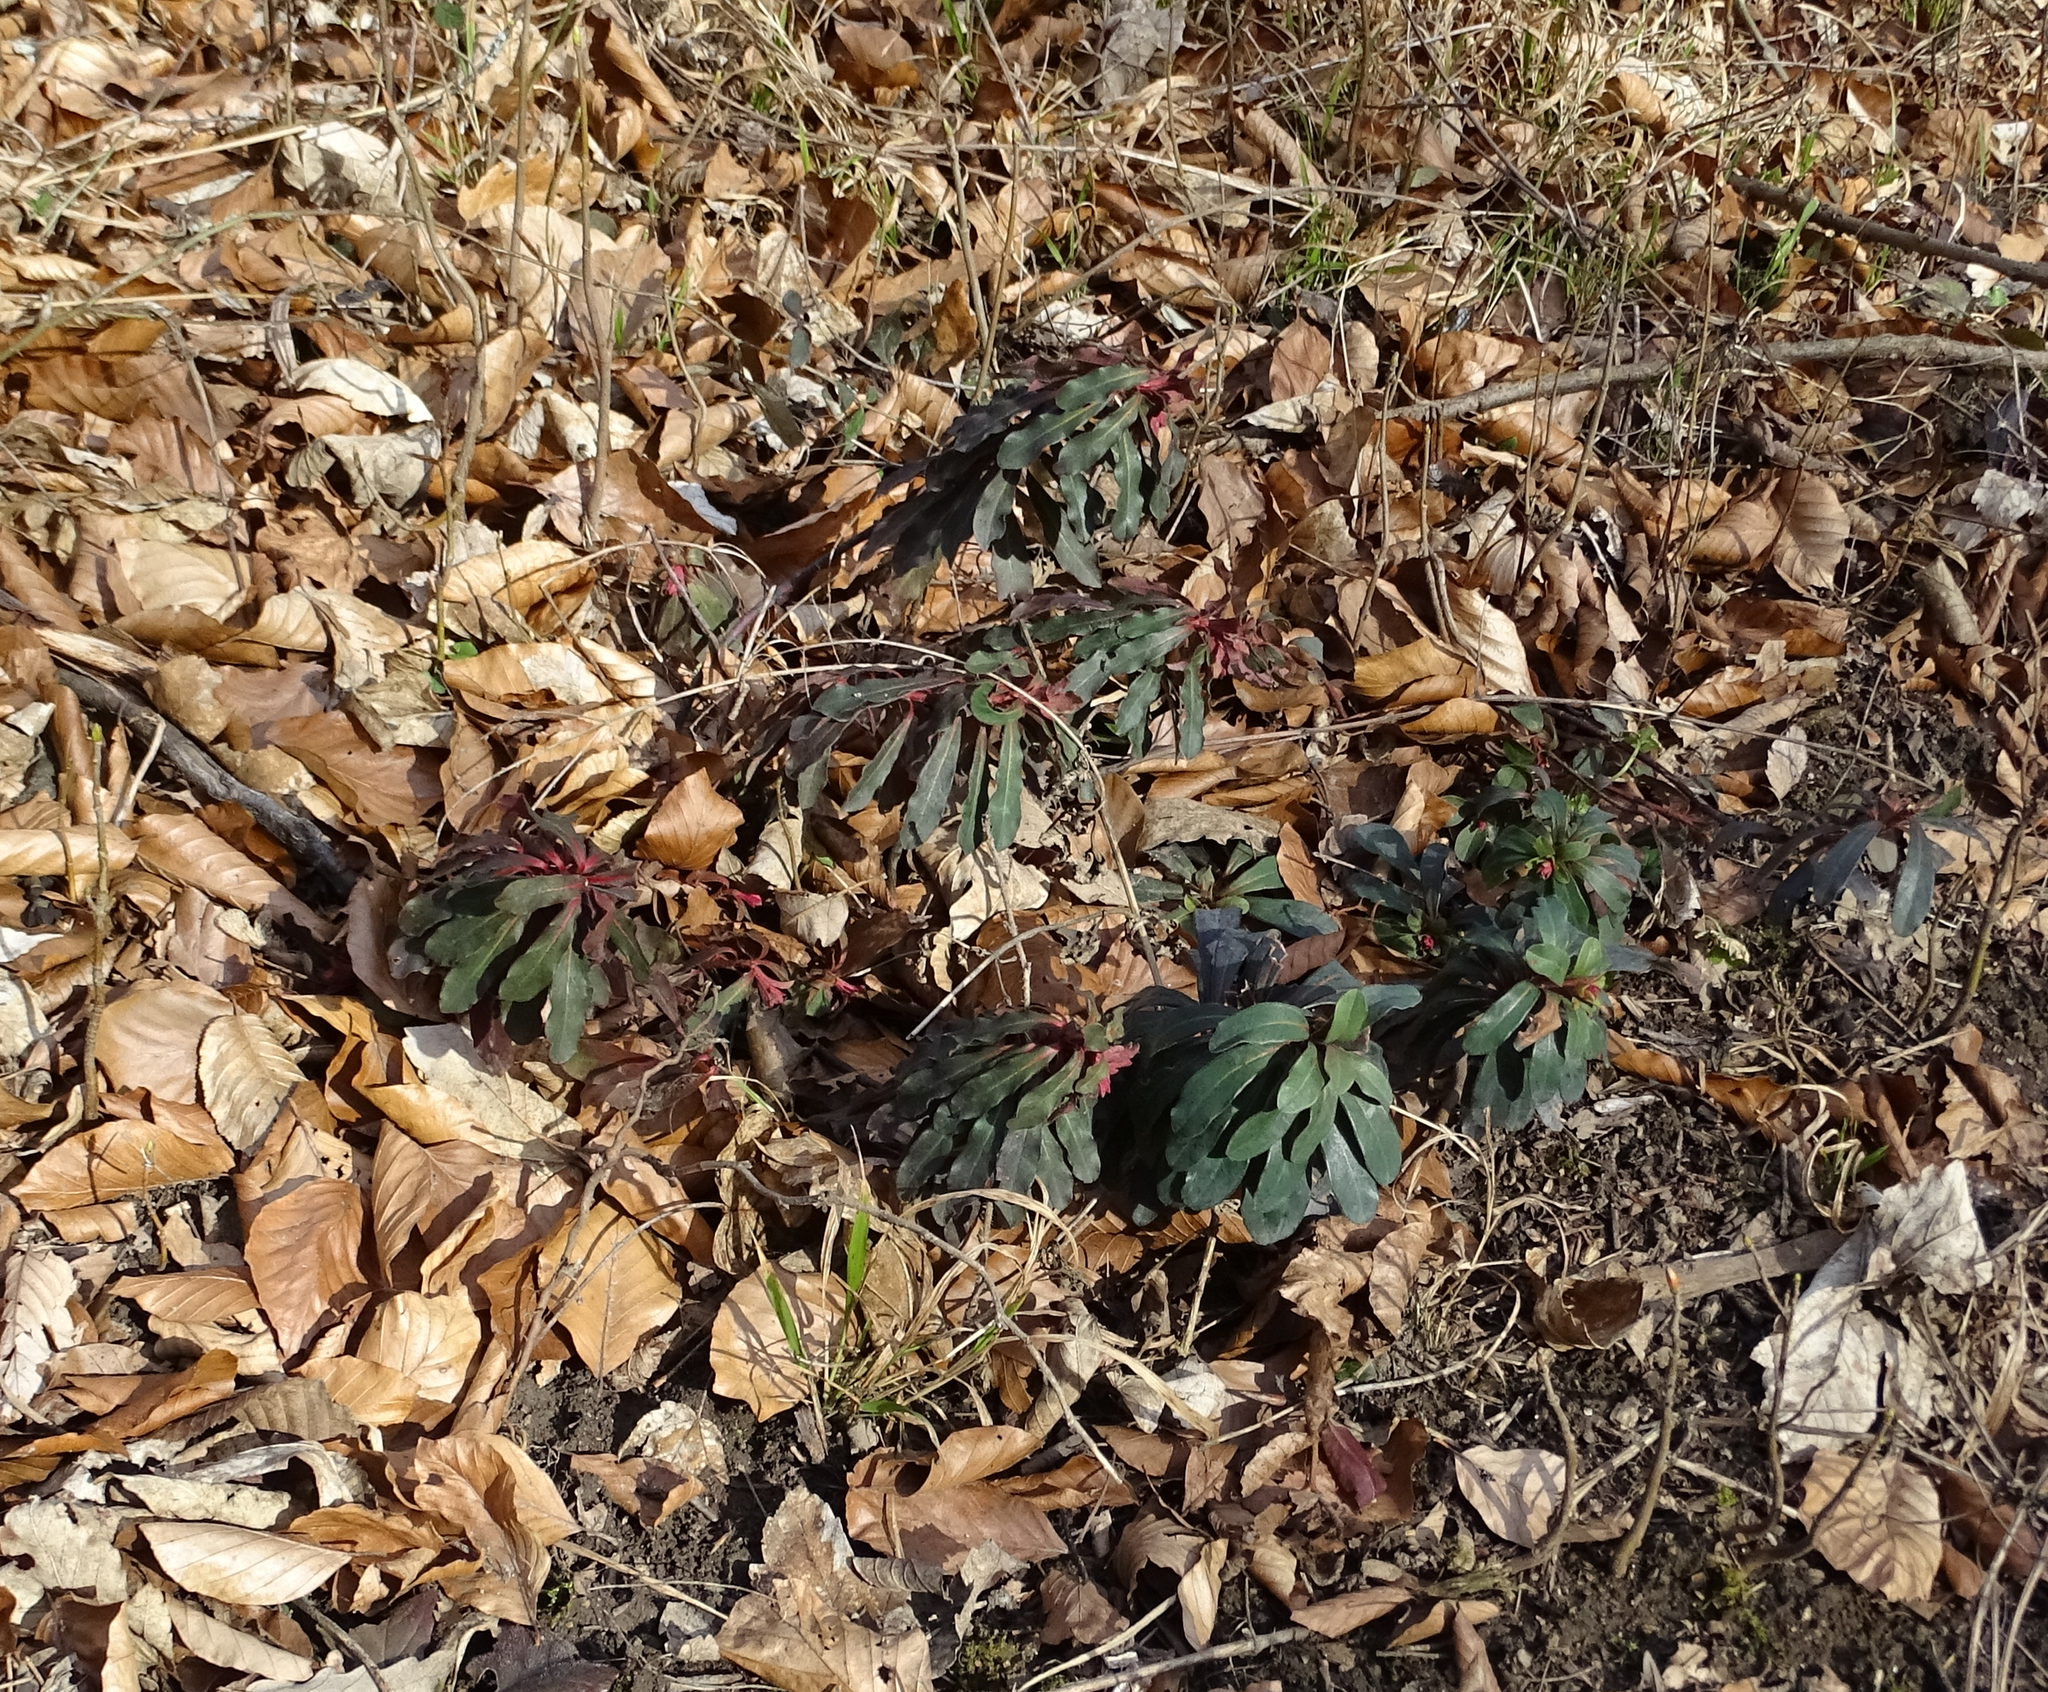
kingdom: Plantae
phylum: Tracheophyta
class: Magnoliopsida
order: Malpighiales
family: Euphorbiaceae
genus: Euphorbia
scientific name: Euphorbia amygdaloides
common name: Wood spurge
